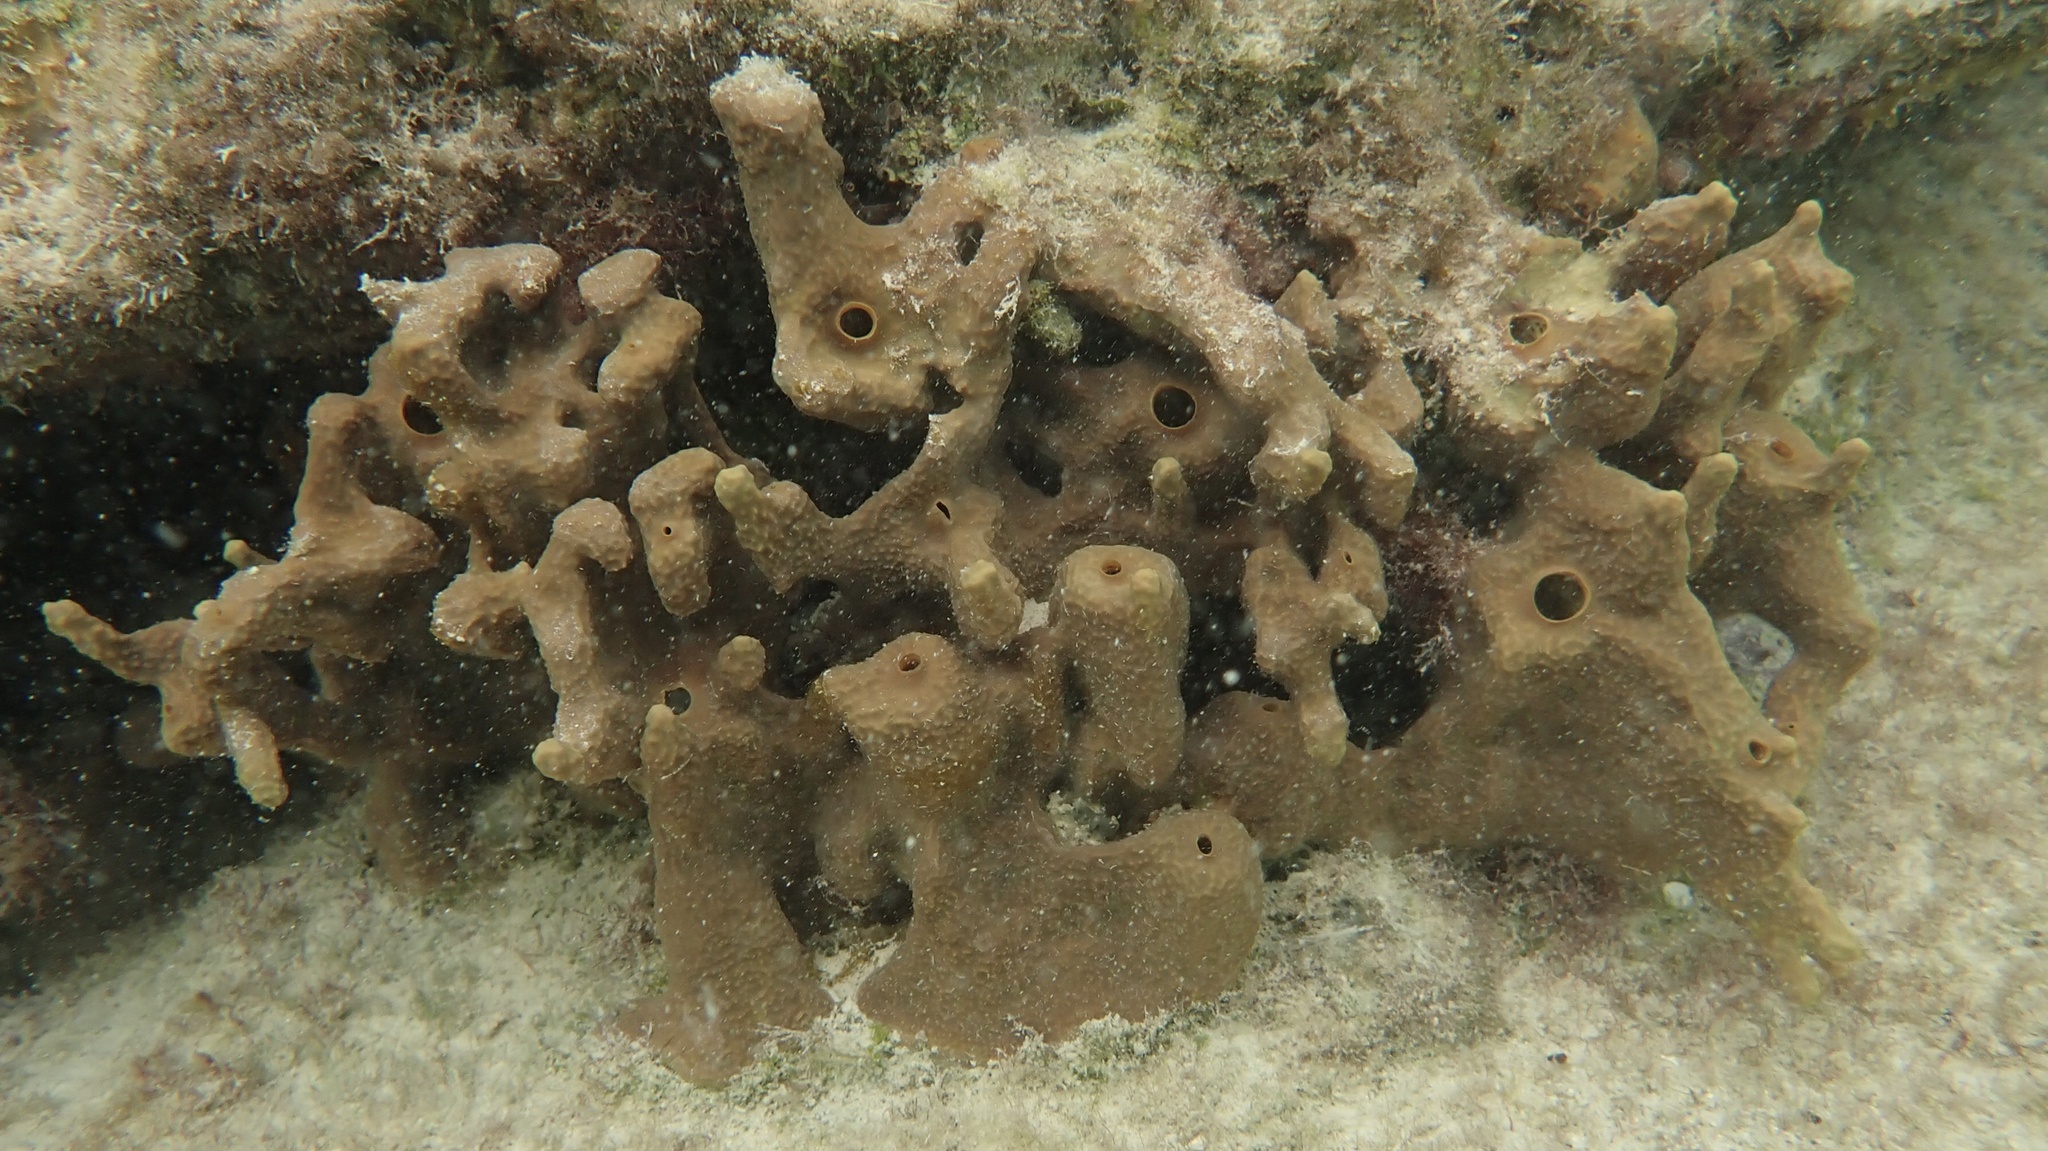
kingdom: Animalia
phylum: Porifera
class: Demospongiae
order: Verongiida
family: Aplysinidae
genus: Aplysina
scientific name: Aplysina fulva
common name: Scattered pore rope sponge
